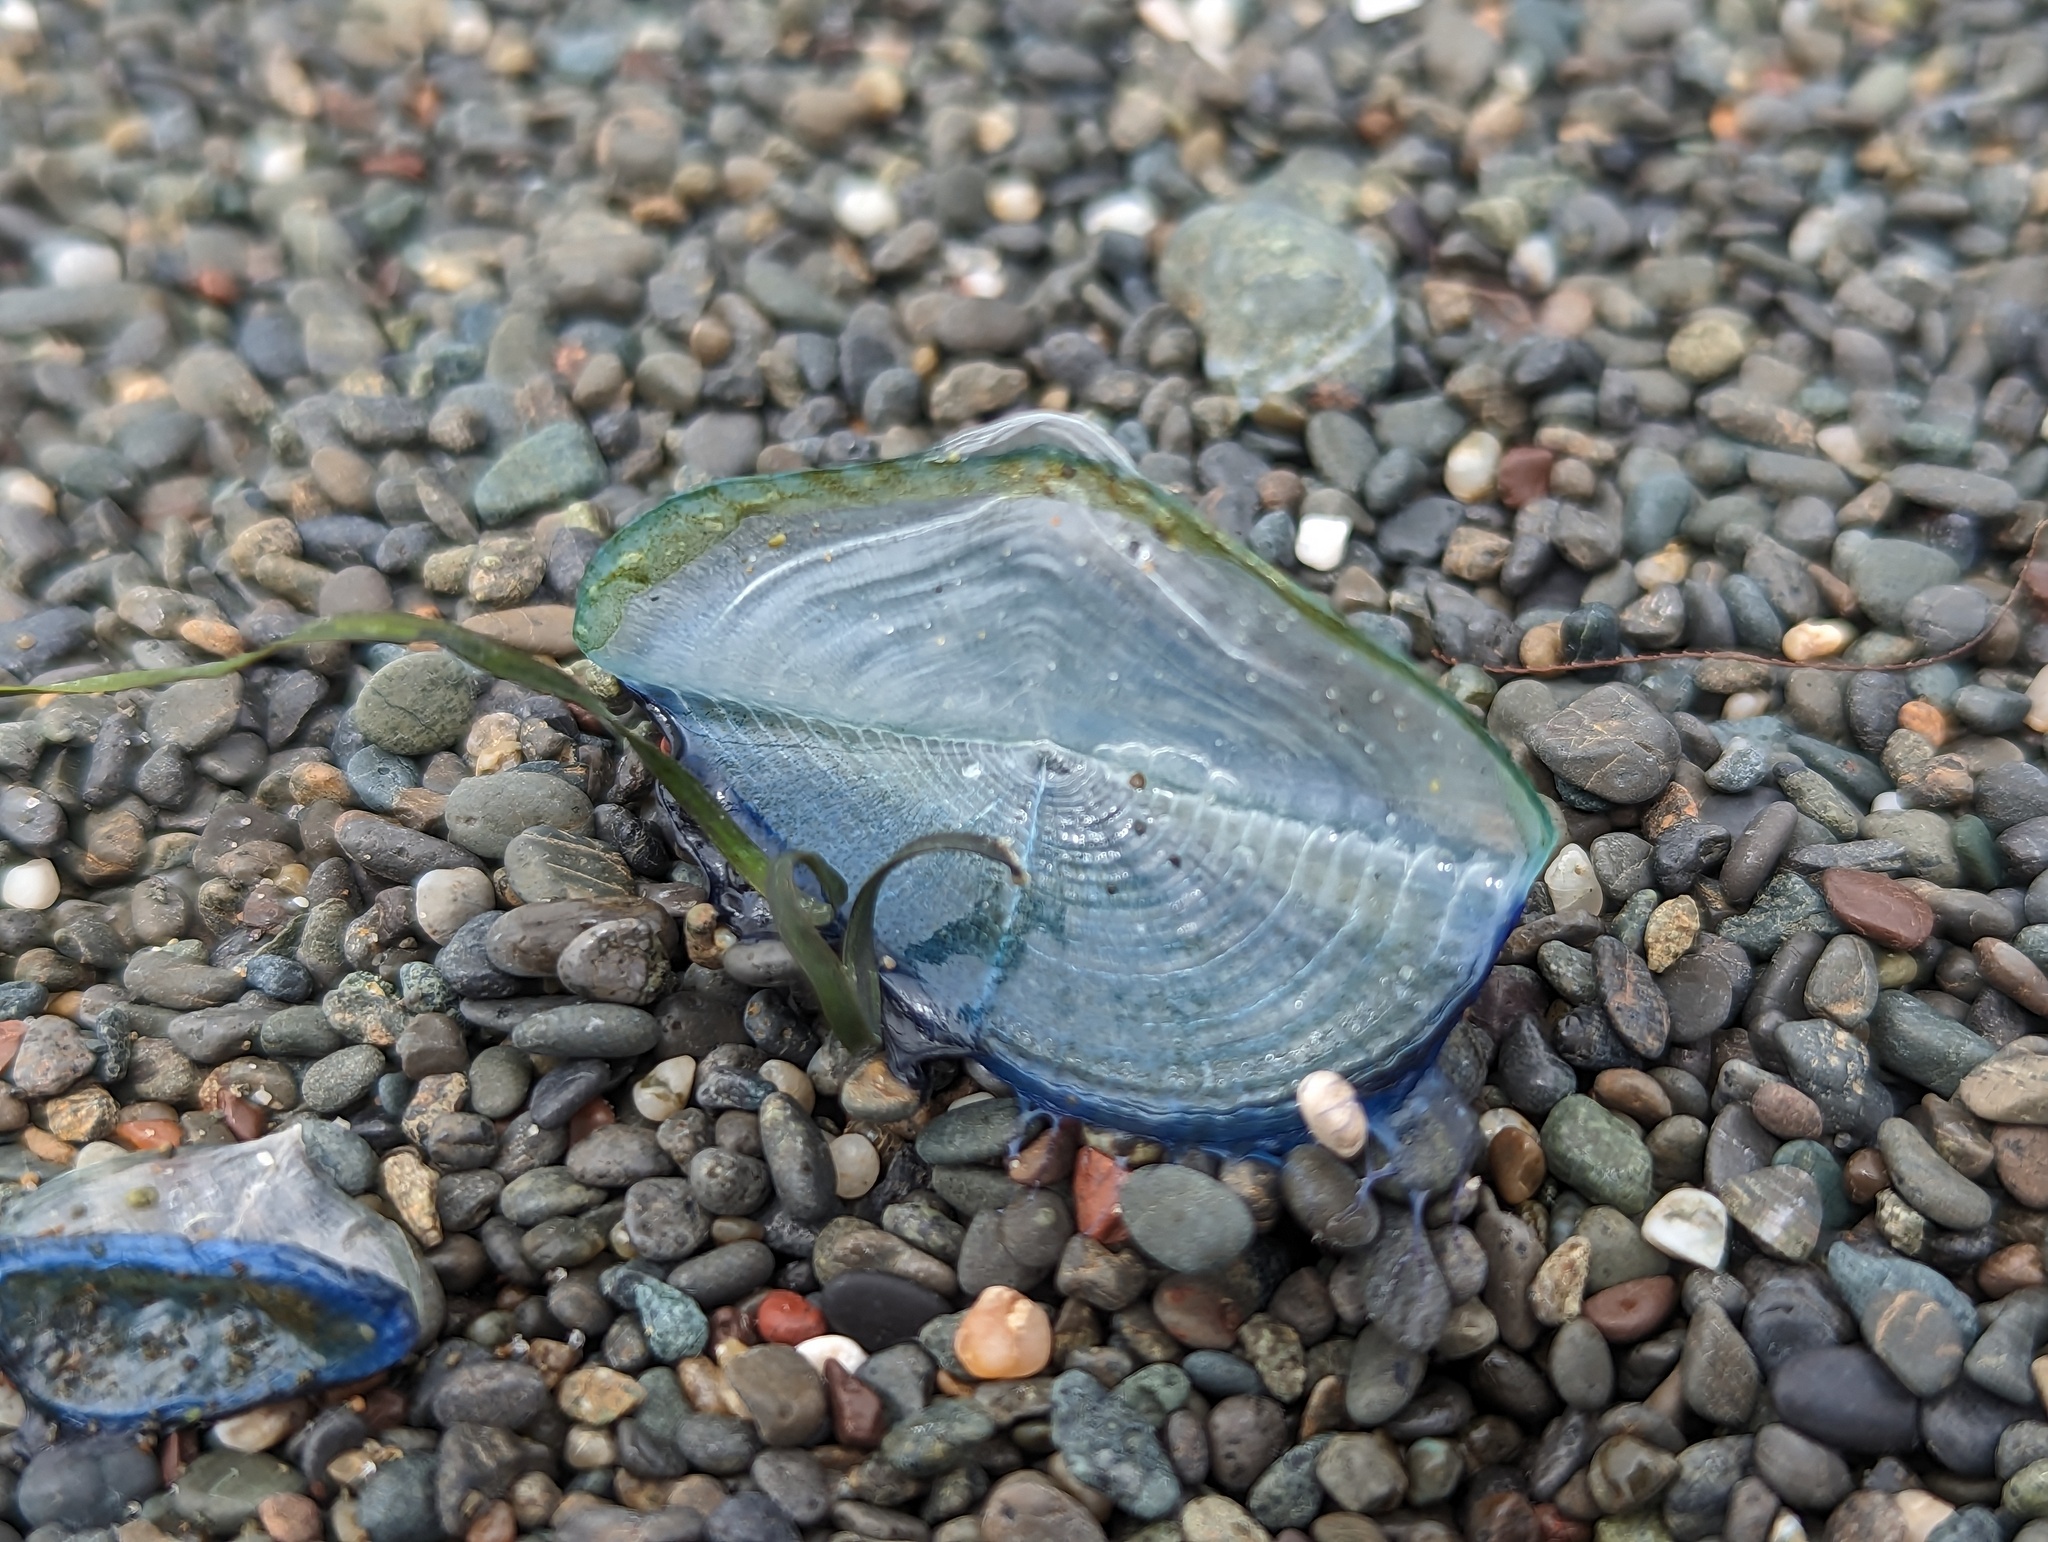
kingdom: Animalia
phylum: Cnidaria
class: Hydrozoa
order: Anthoathecata
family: Porpitidae
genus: Velella
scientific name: Velella velella
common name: By-the-wind-sailor
